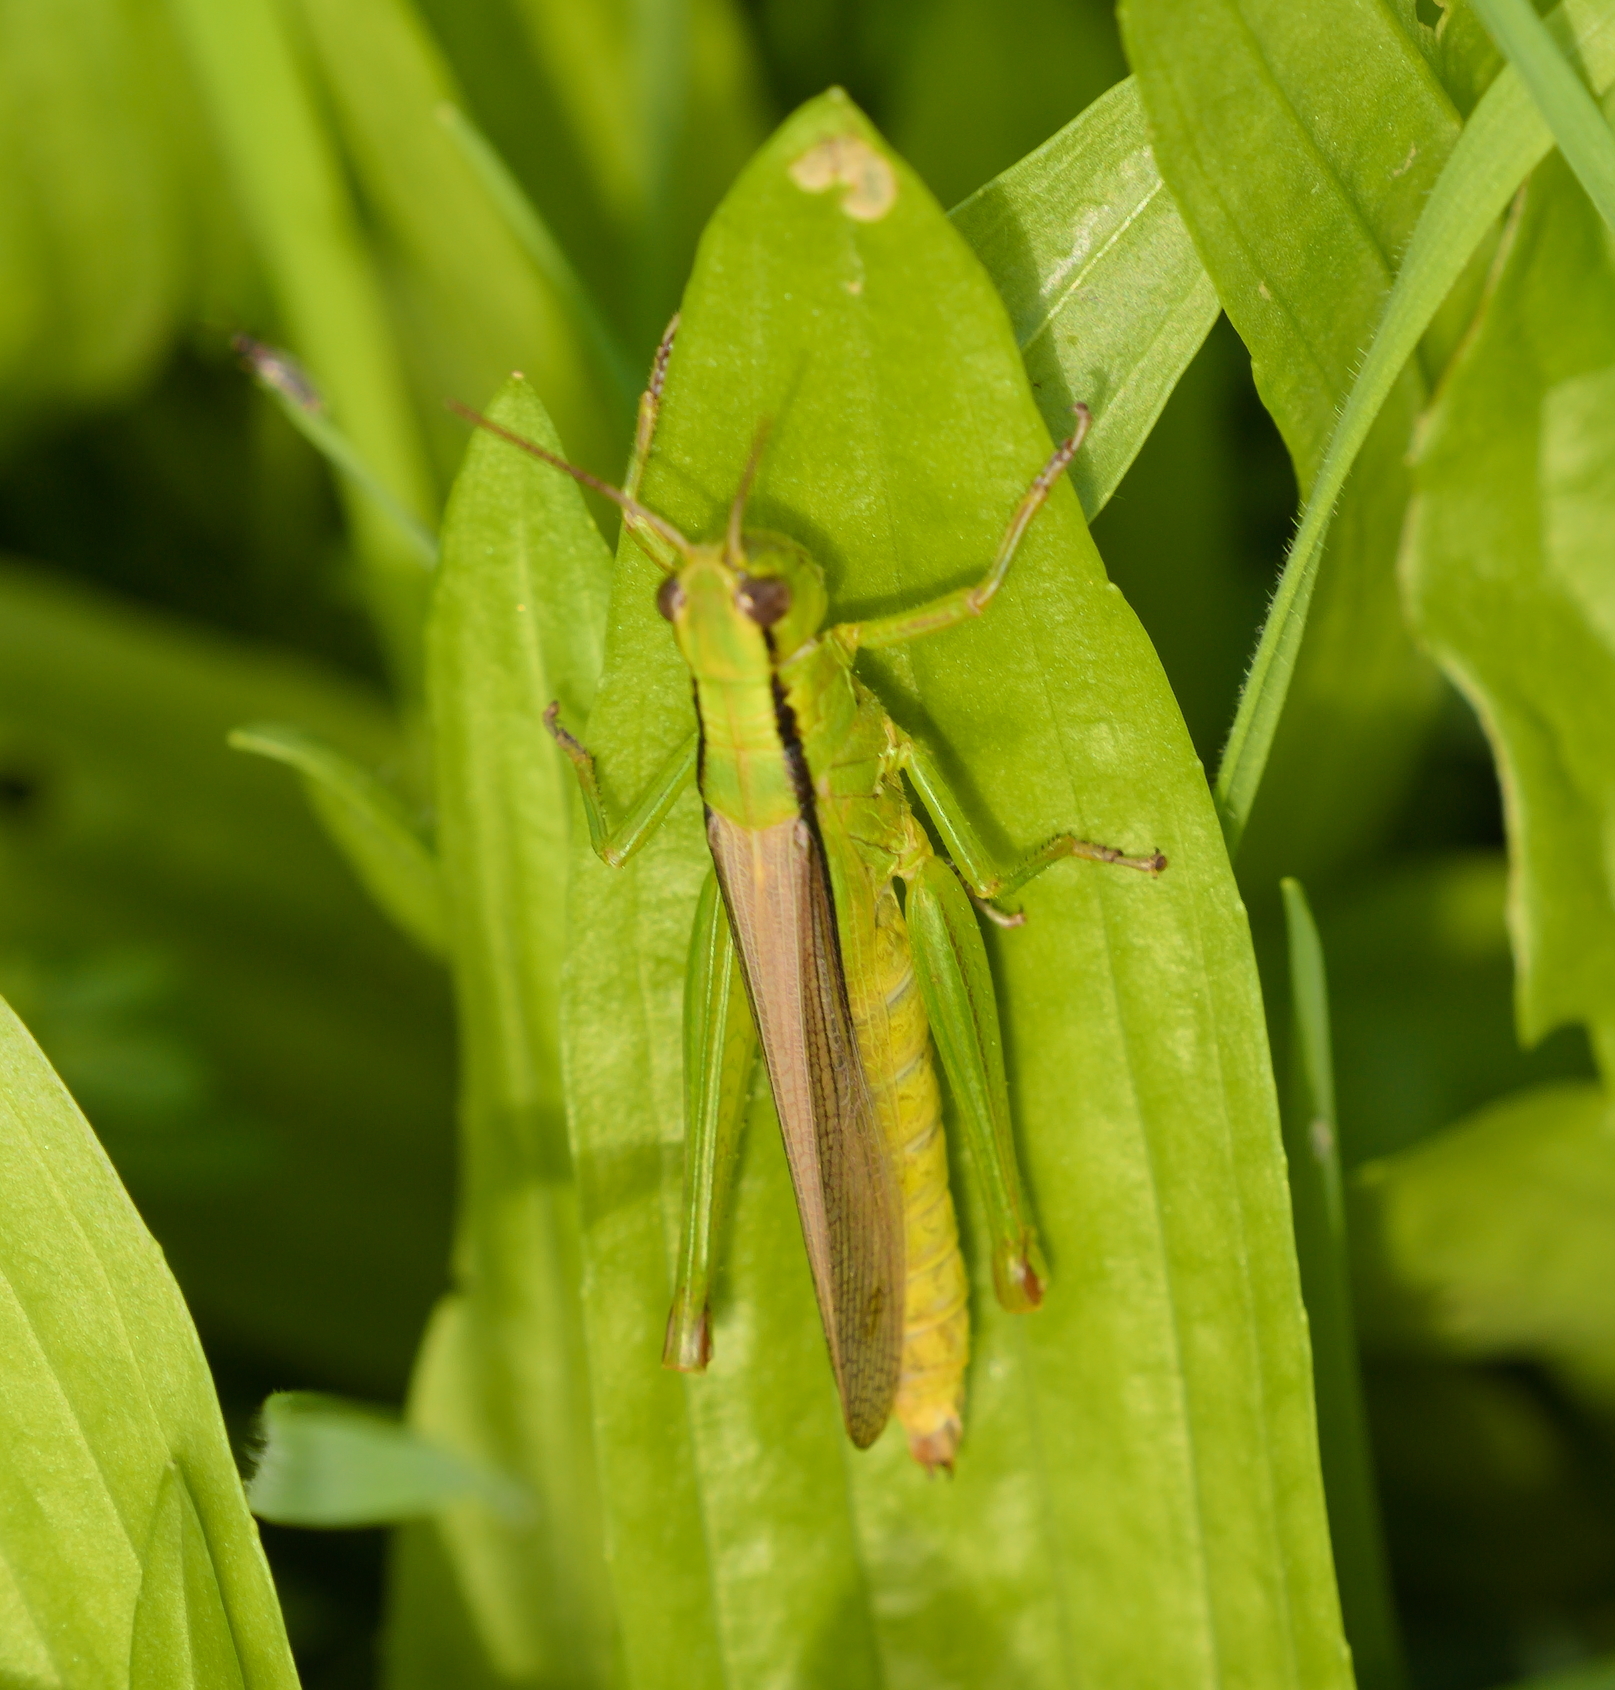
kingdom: Animalia
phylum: Arthropoda
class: Insecta
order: Orthoptera
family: Acrididae
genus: Mecostethus
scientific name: Mecostethus parapleurus
